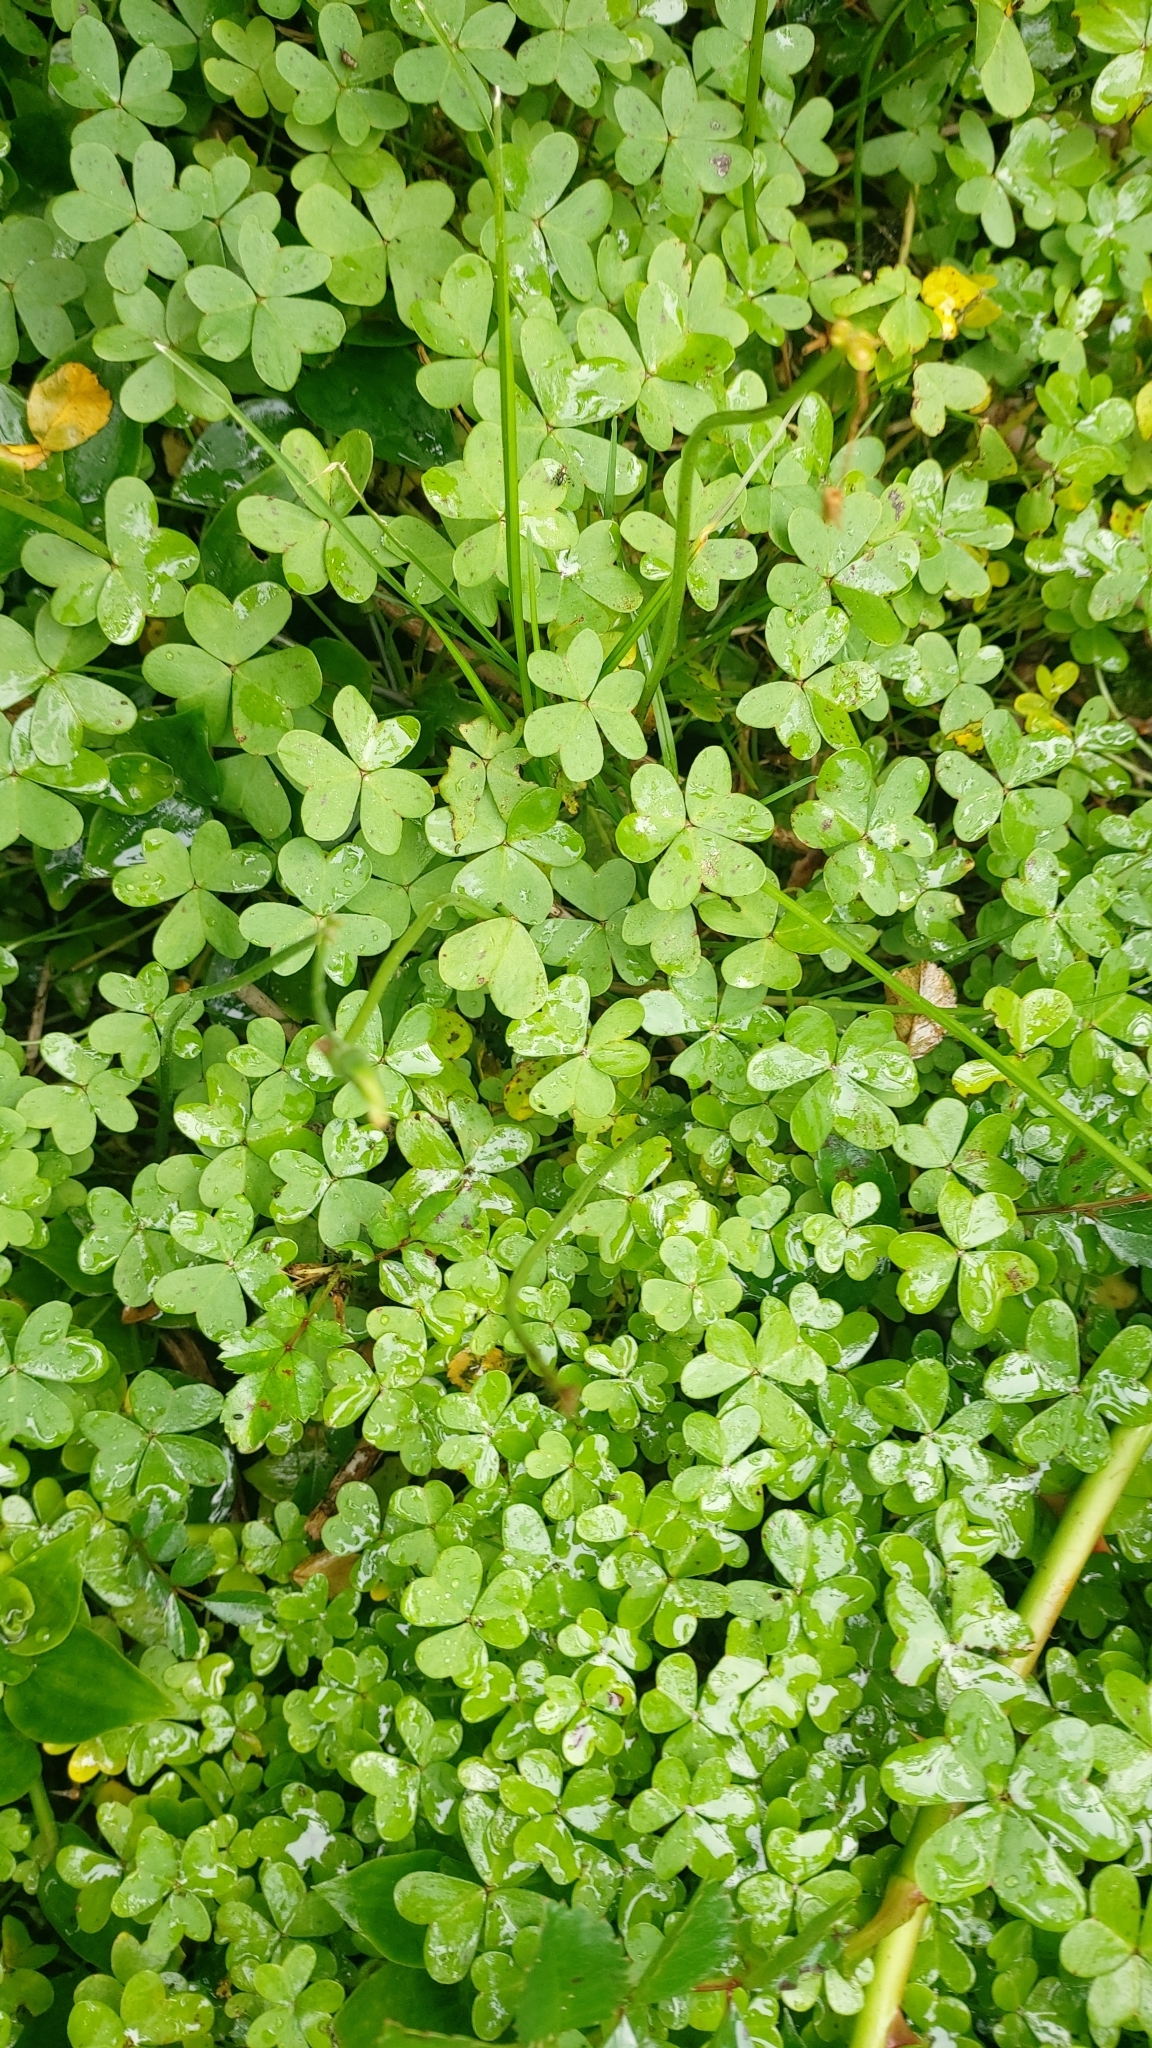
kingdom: Plantae
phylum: Tracheophyta
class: Magnoliopsida
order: Oxalidales
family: Oxalidaceae
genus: Oxalis
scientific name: Oxalis pes-caprae
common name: Bermuda-buttercup
